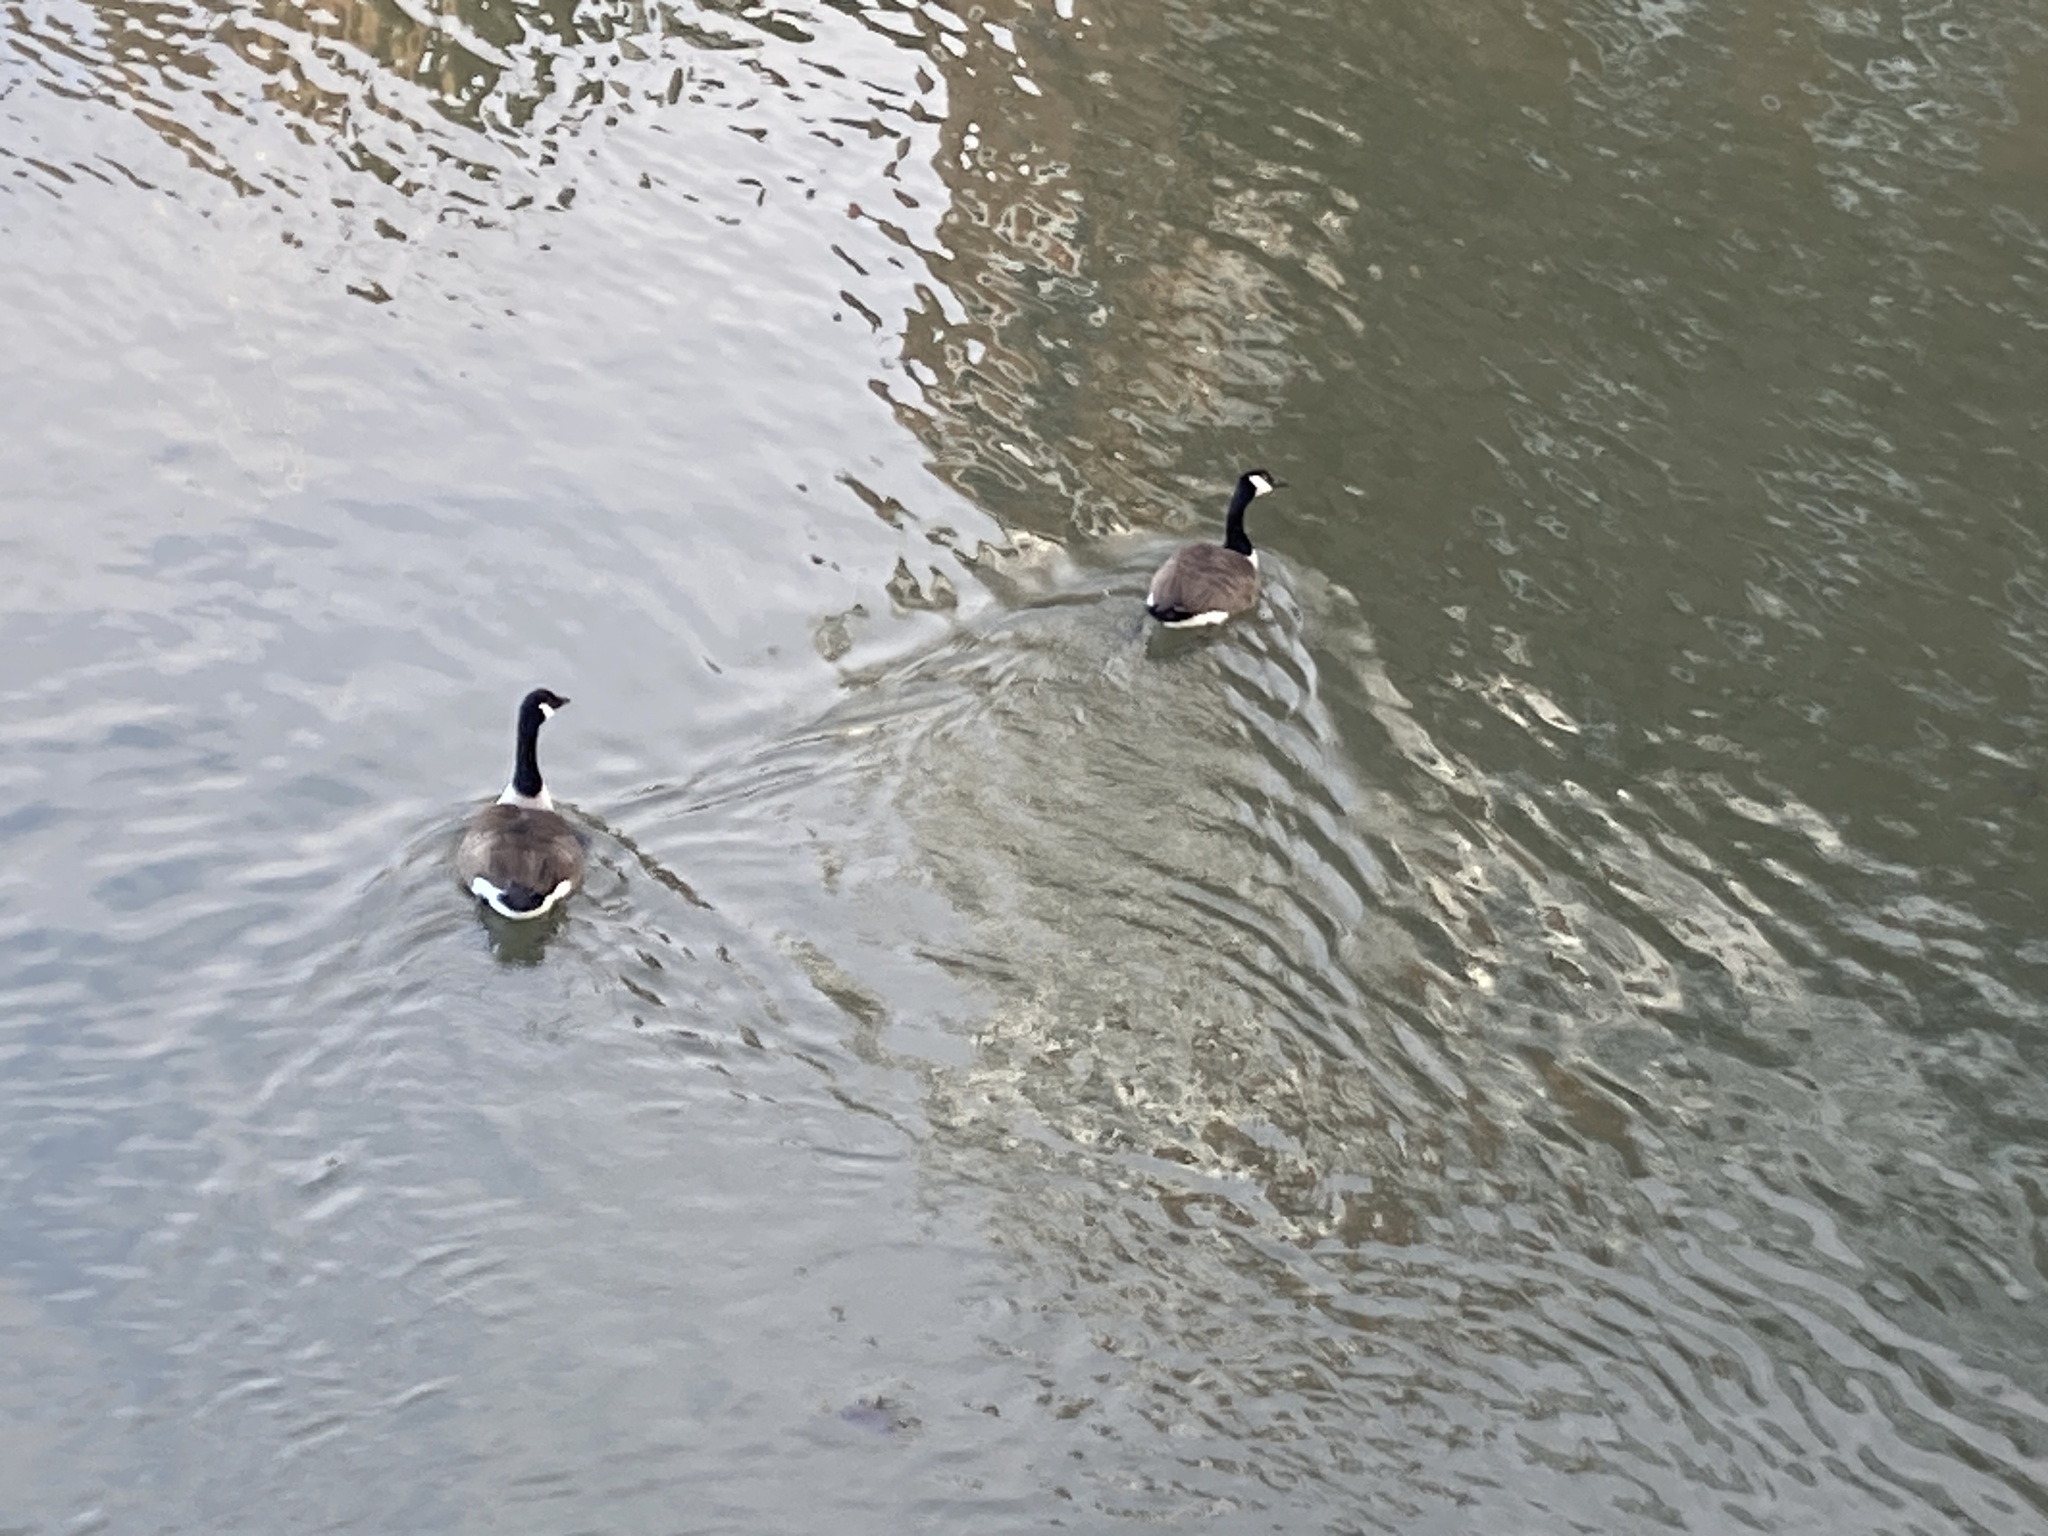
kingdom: Animalia
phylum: Chordata
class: Aves
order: Anseriformes
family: Anatidae
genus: Branta
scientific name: Branta canadensis
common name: Canada goose
